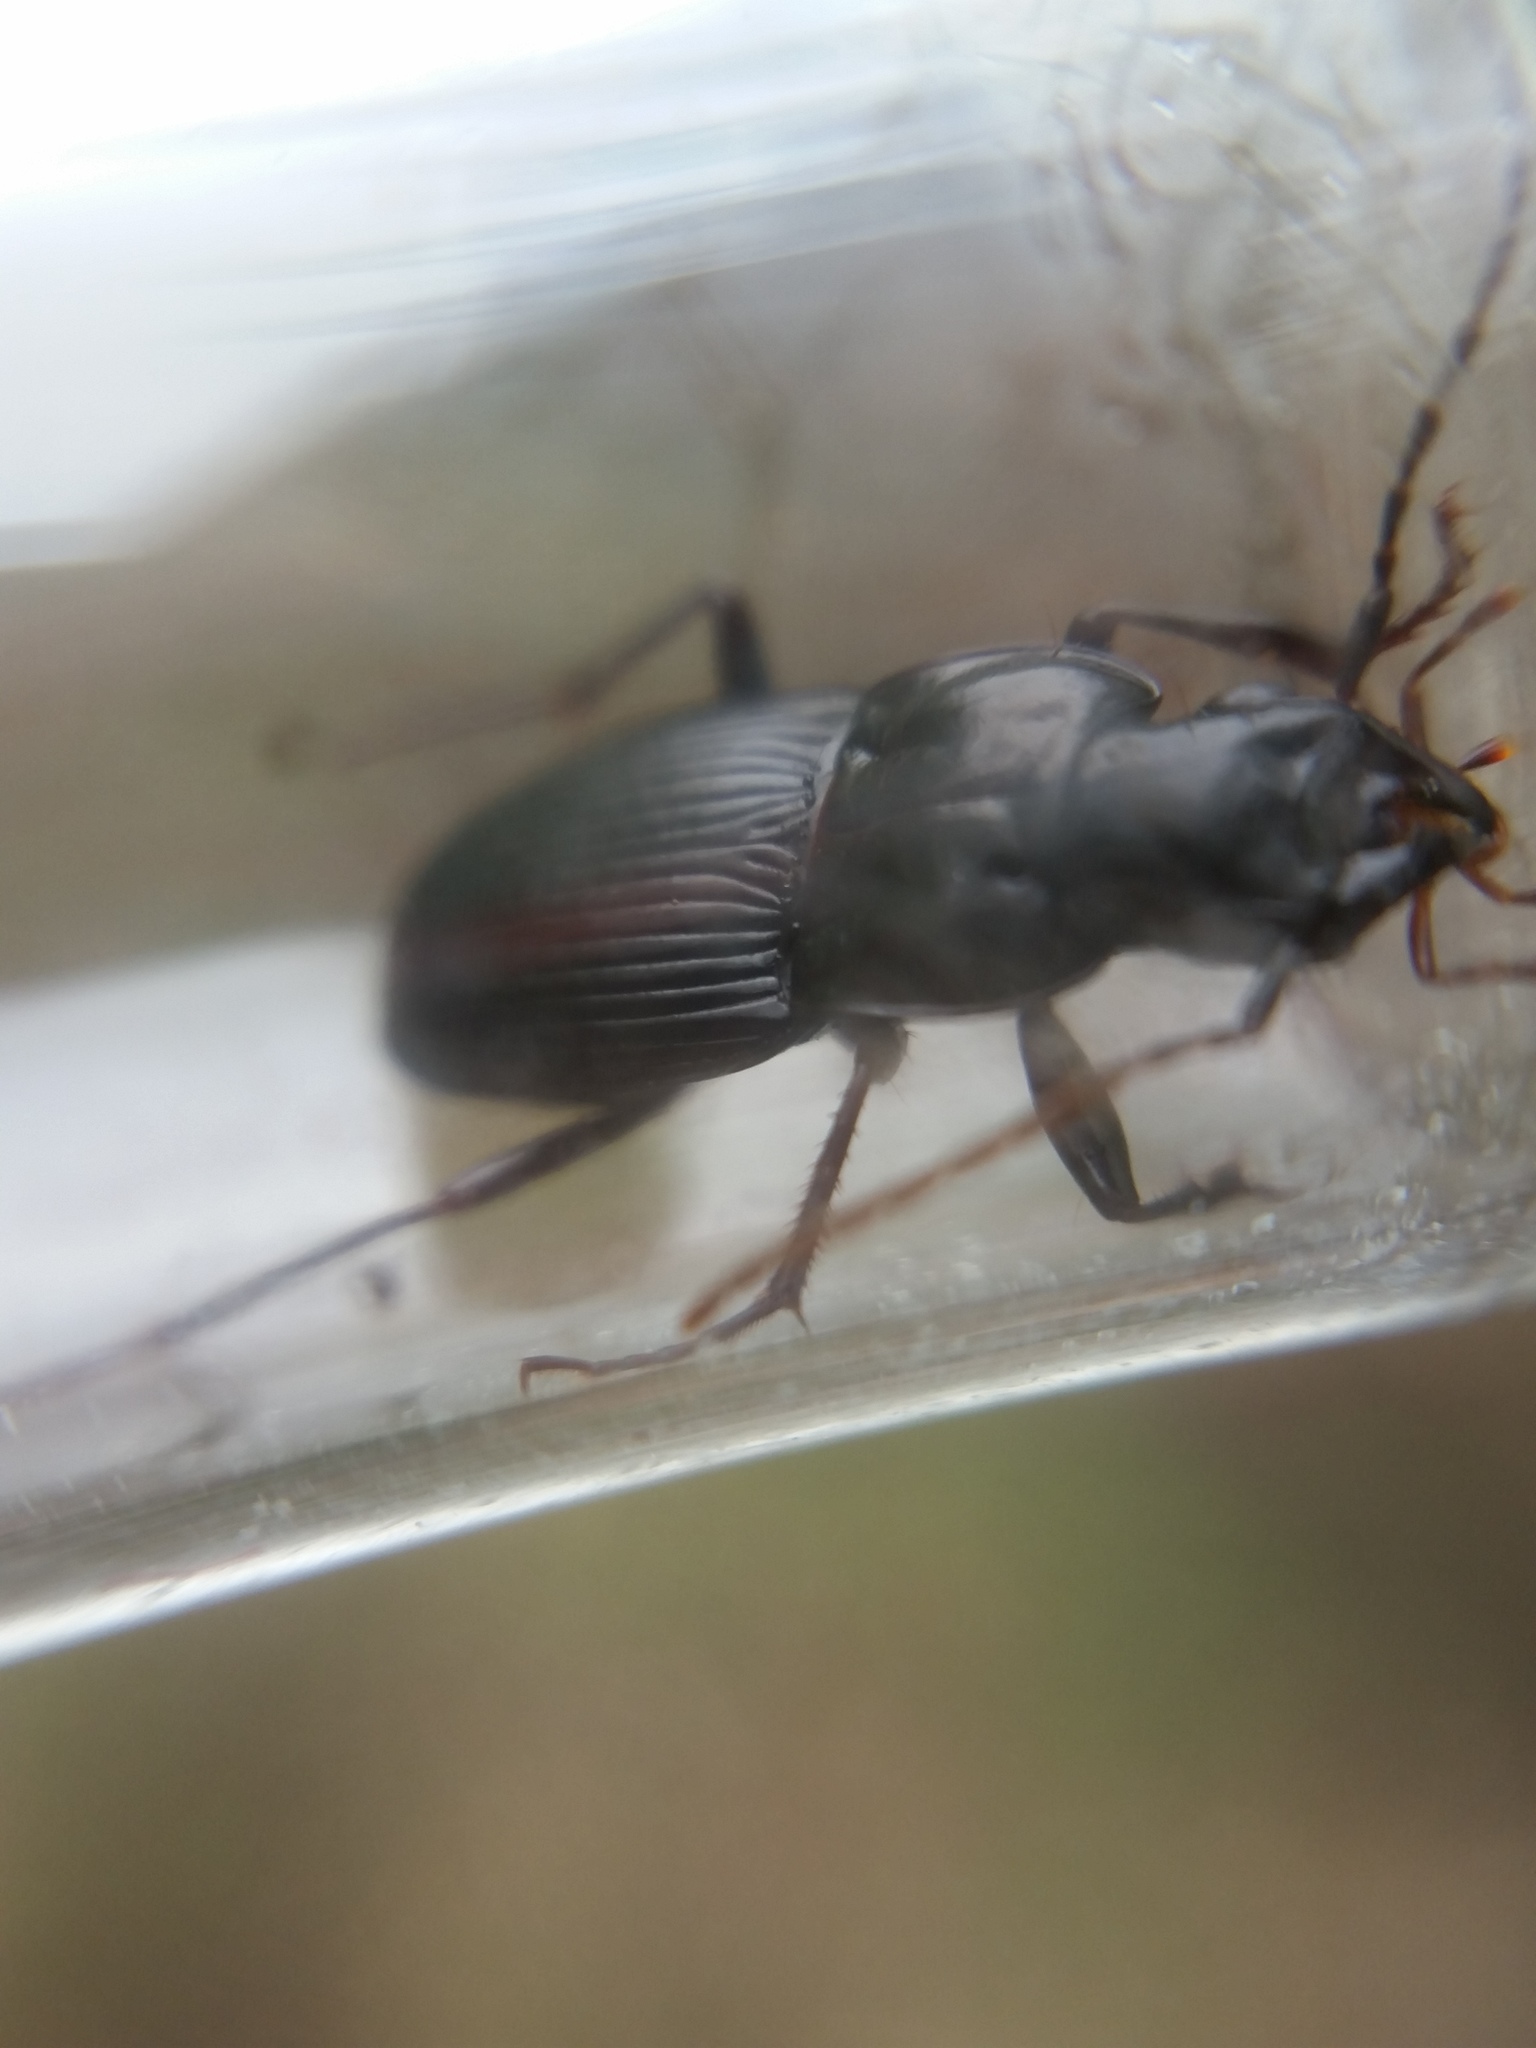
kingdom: Animalia
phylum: Arthropoda
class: Insecta
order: Coleoptera
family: Carabidae
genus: Dicaelus
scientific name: Dicaelus politus
